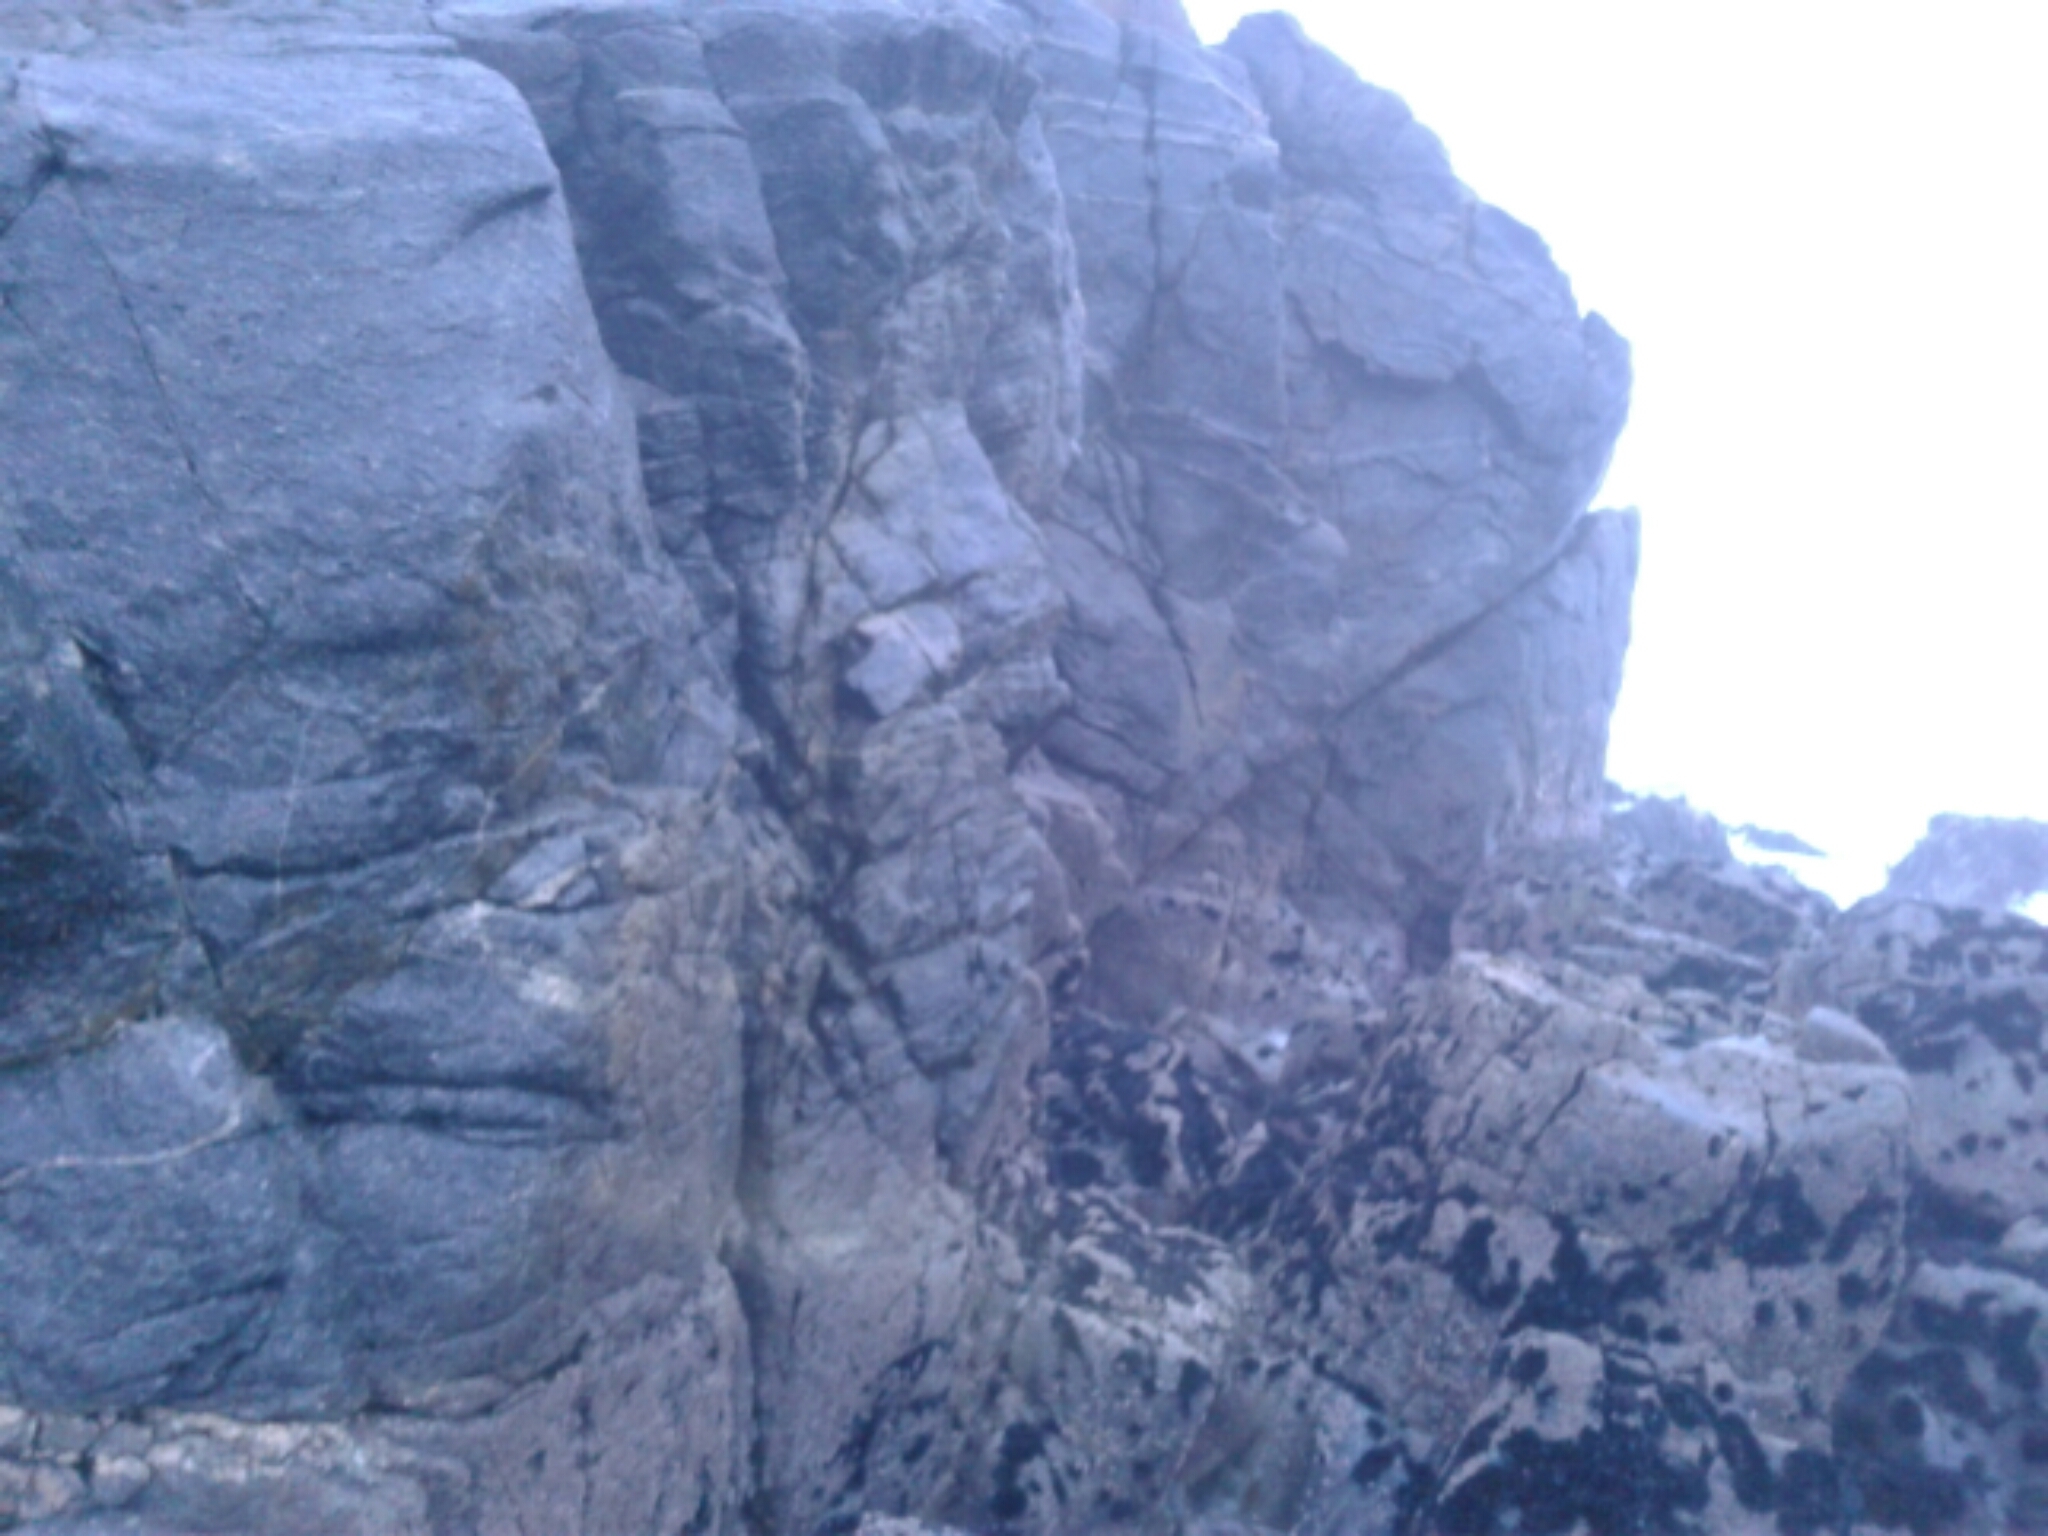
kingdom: Animalia
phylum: Mollusca
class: Polyplacophora
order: Chitonida
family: Chitonidae
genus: Sypharochiton
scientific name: Sypharochiton pelliserpentis
